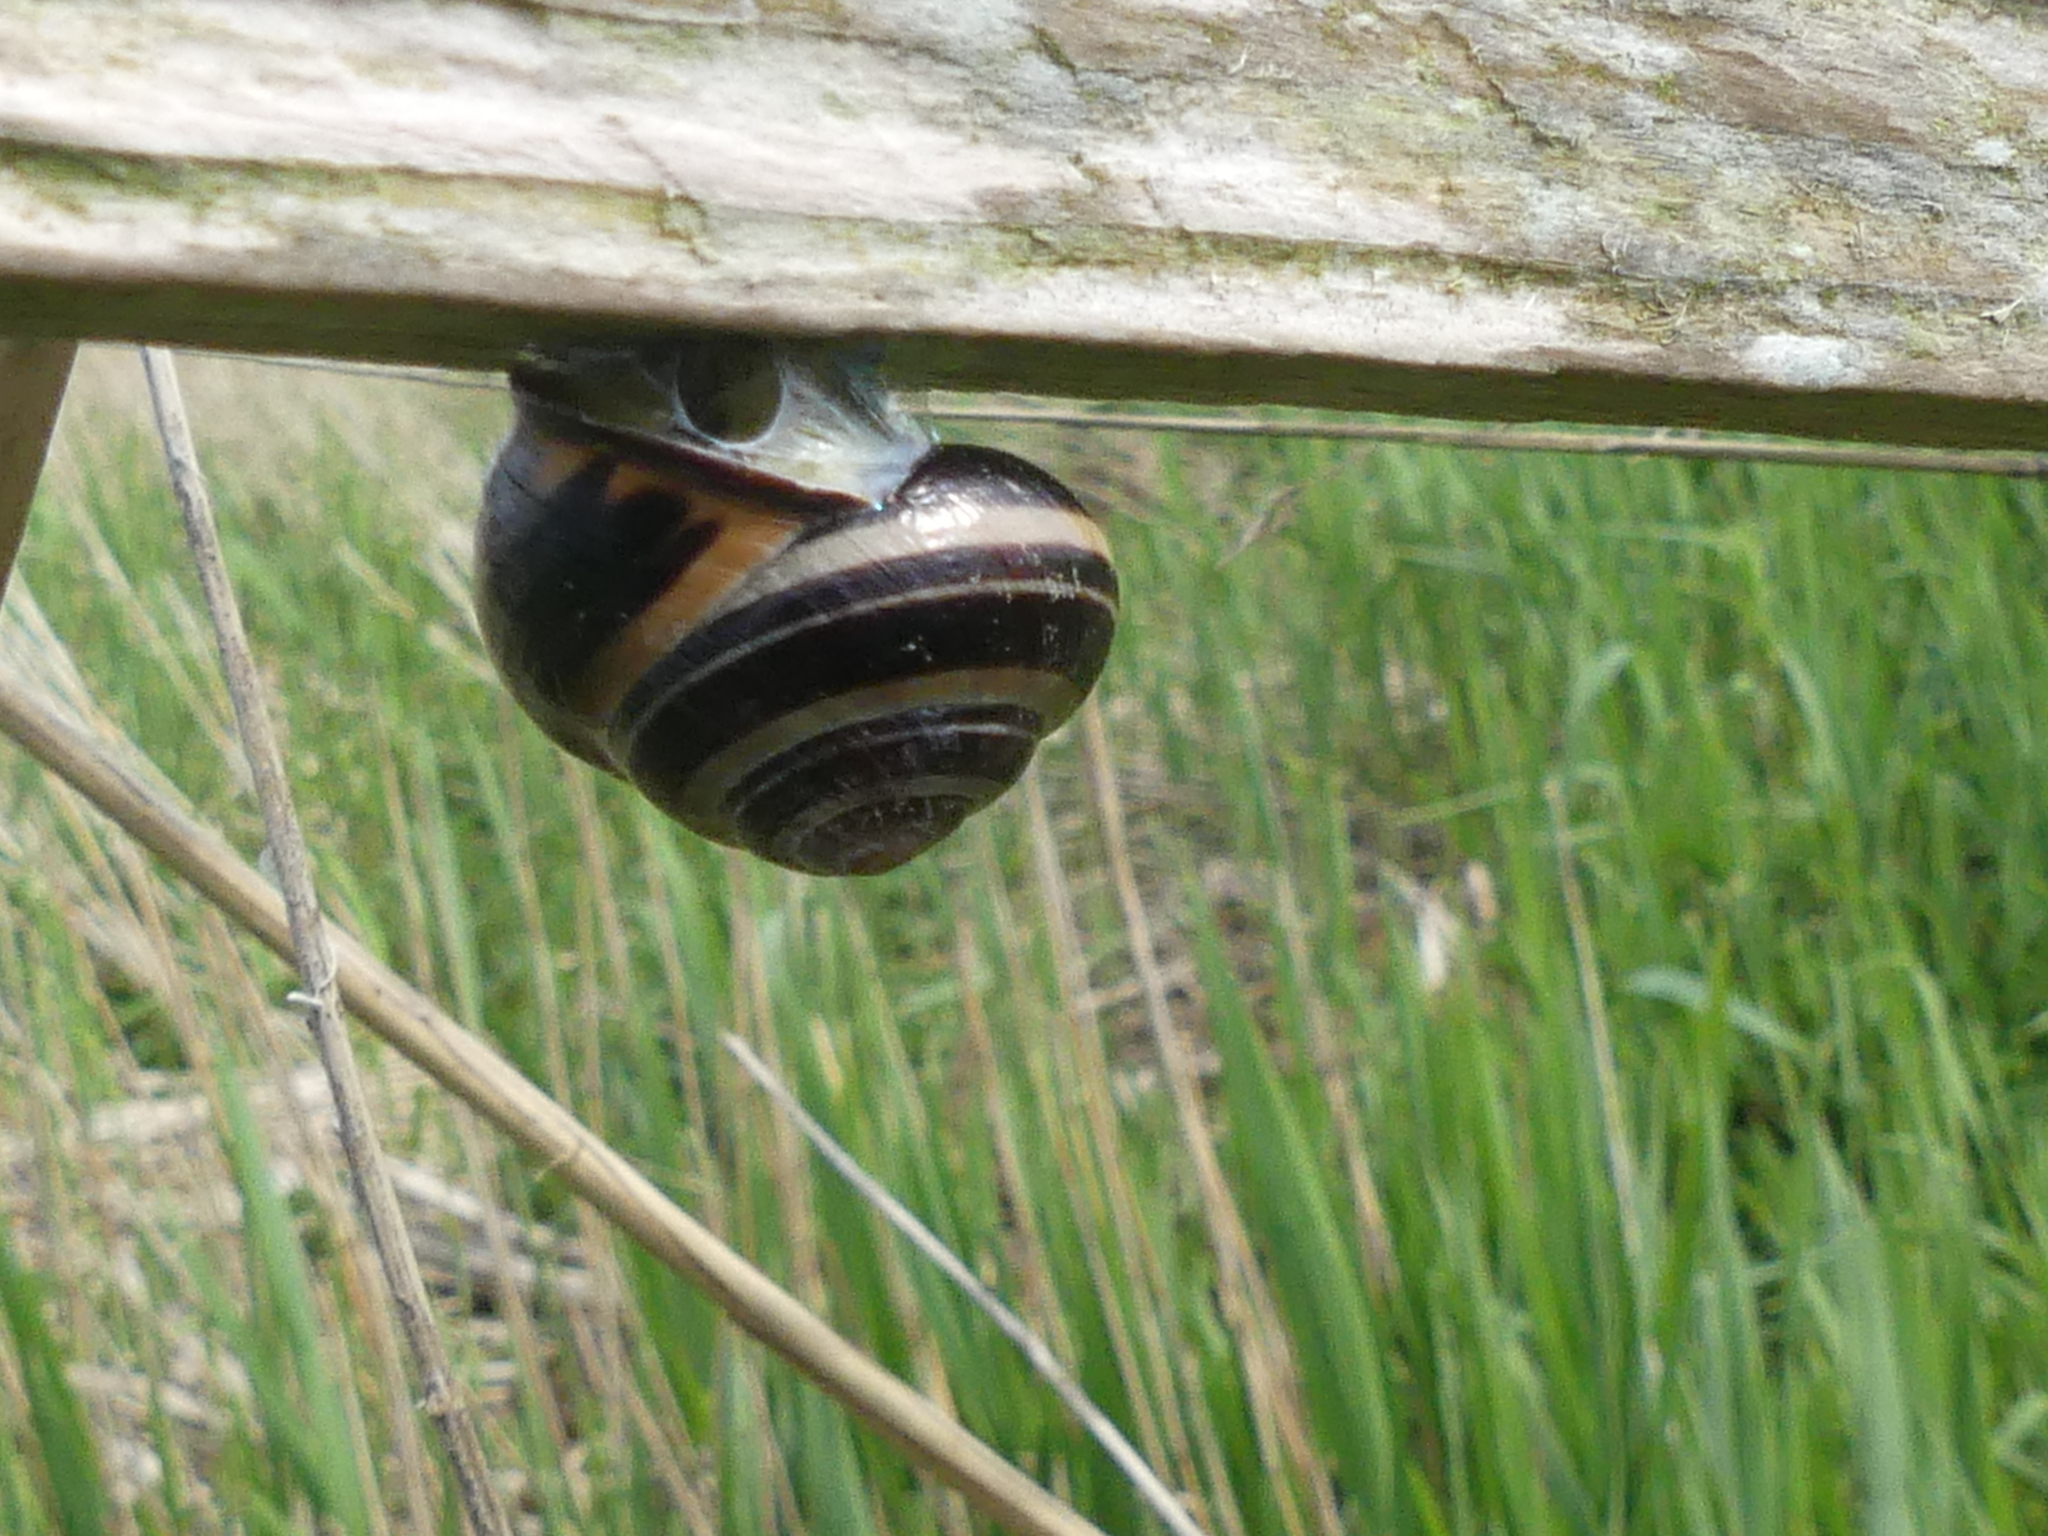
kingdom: Animalia
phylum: Mollusca
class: Gastropoda
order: Stylommatophora
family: Helicidae
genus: Cepaea
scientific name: Cepaea nemoralis
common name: Grovesnail
